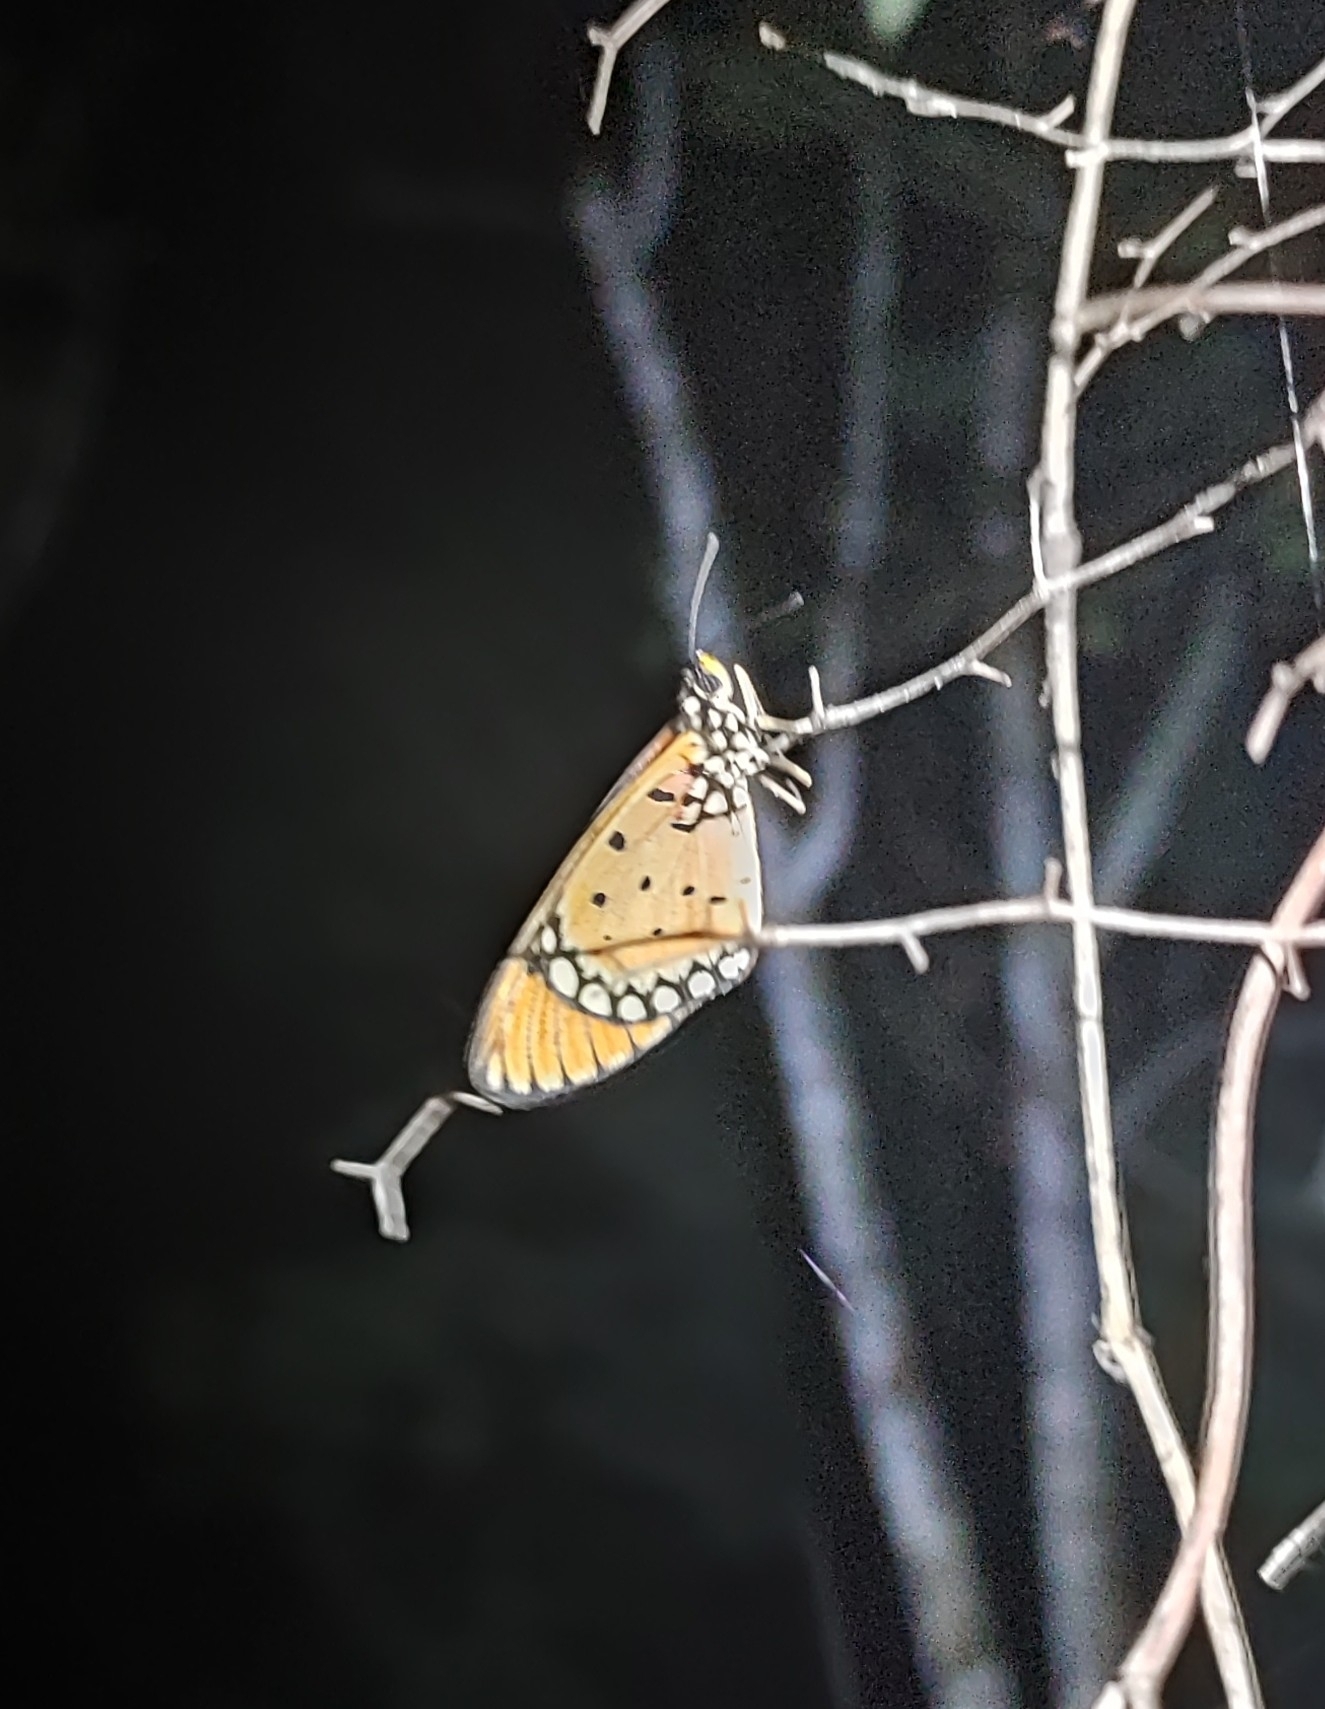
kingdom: Animalia
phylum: Arthropoda
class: Insecta
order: Lepidoptera
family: Nymphalidae
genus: Acraea
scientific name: Acraea terpsicore
